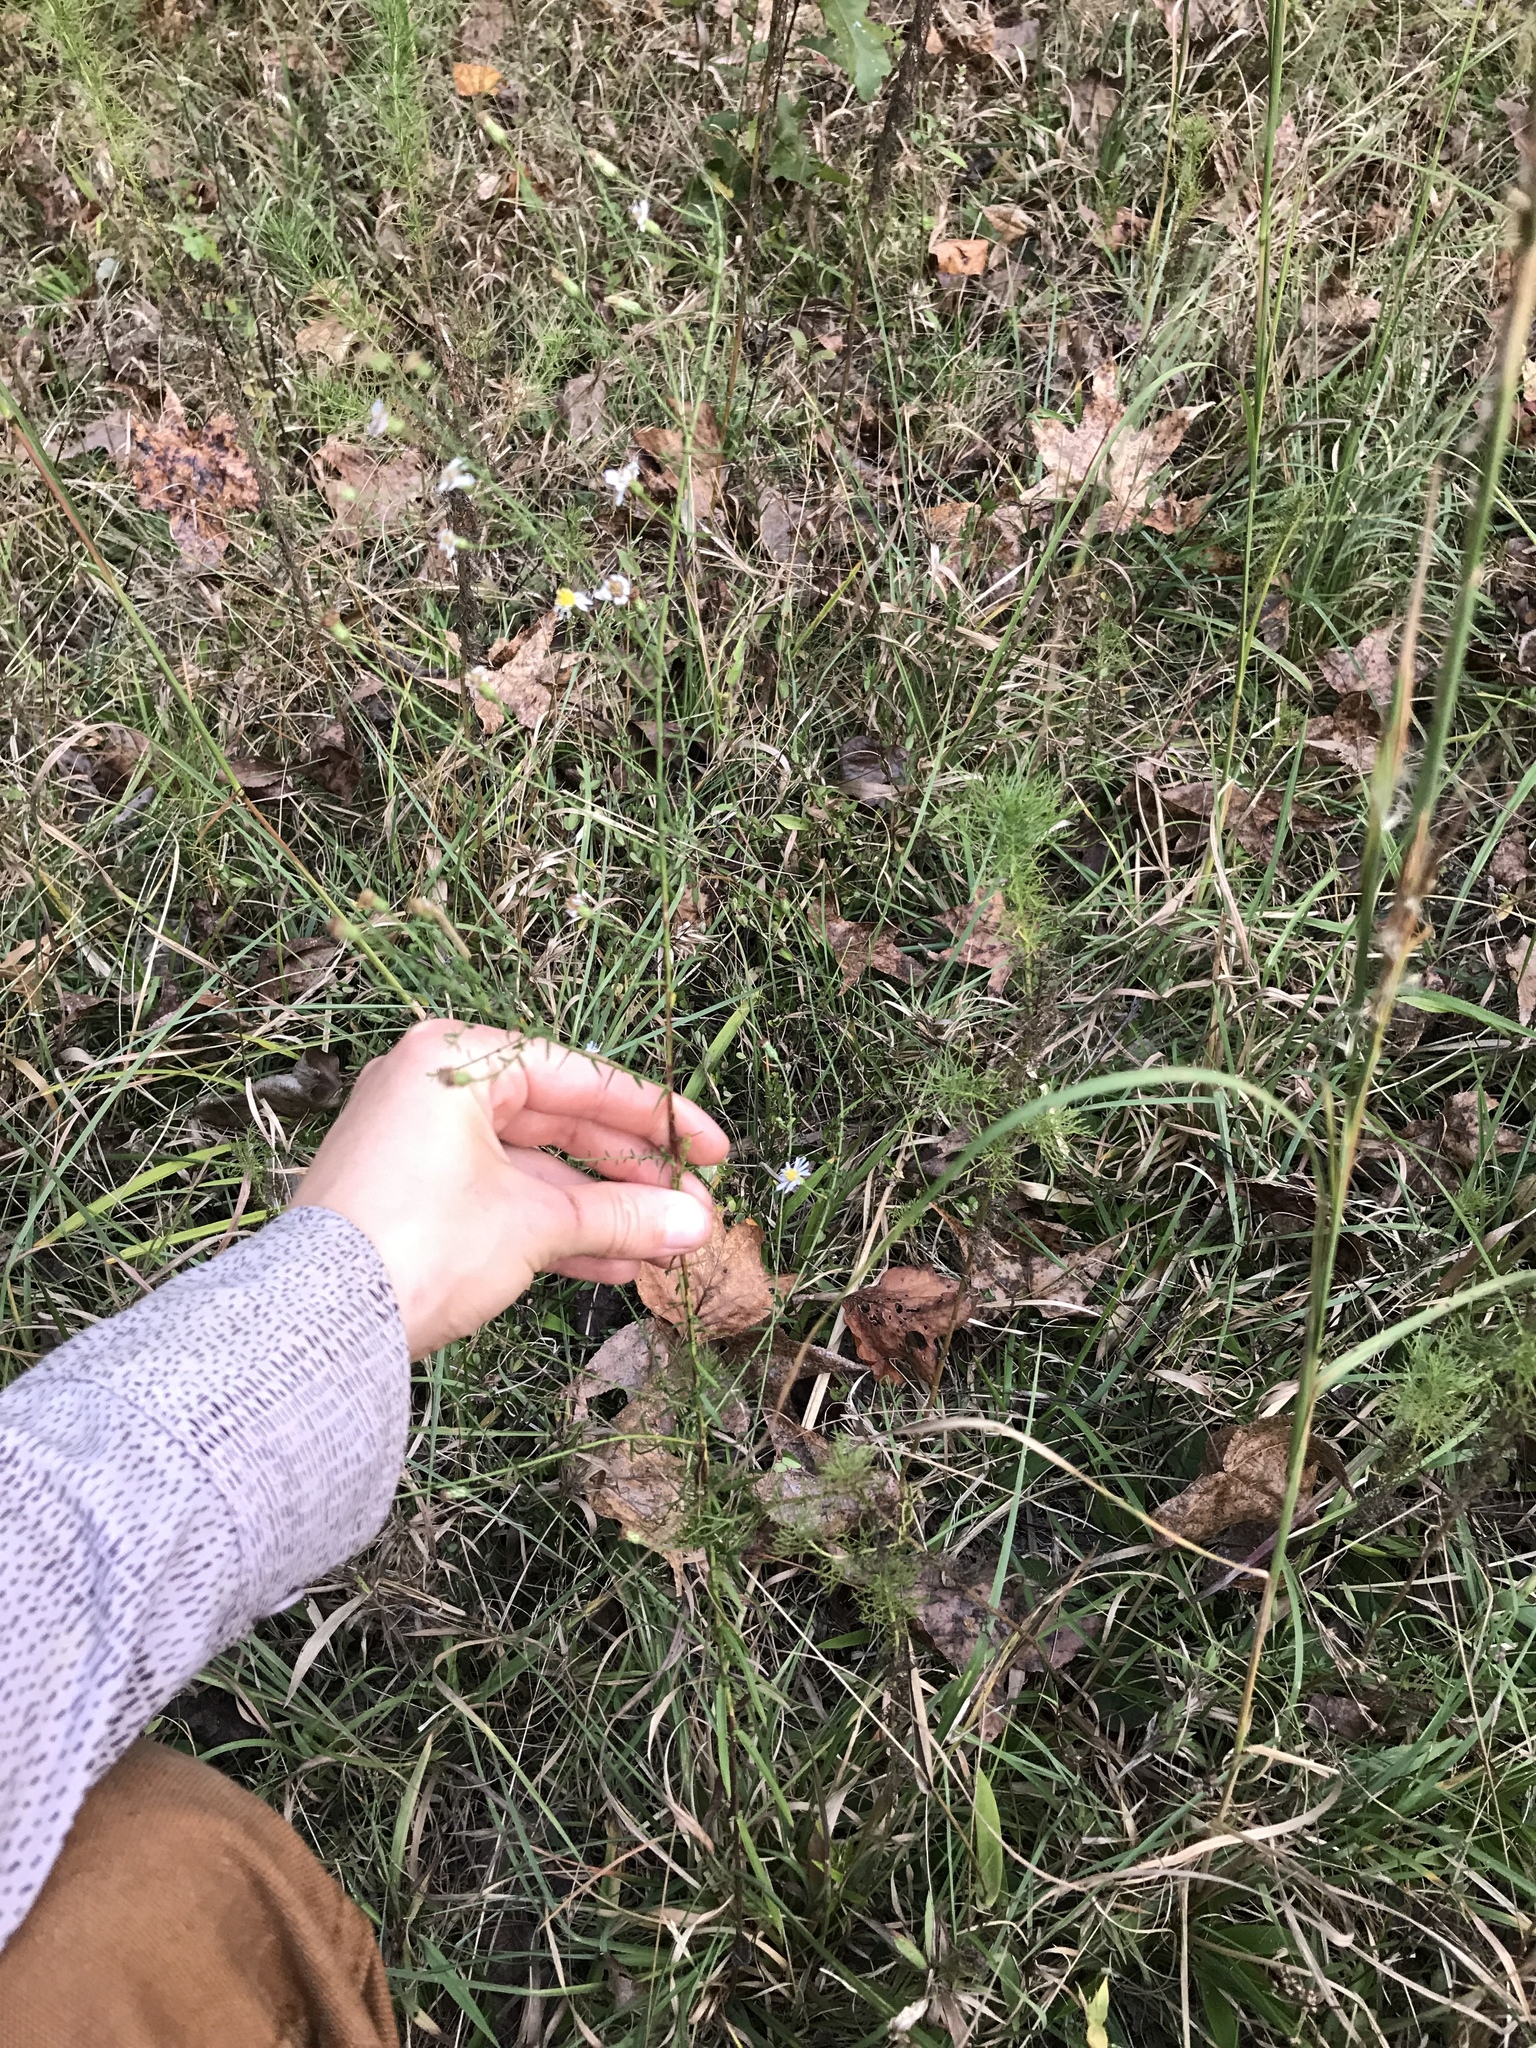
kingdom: Plantae
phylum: Tracheophyta
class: Magnoliopsida
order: Asterales
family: Asteraceae
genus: Symphyotrichum
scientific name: Symphyotrichum dumosum
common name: Bushy aster
